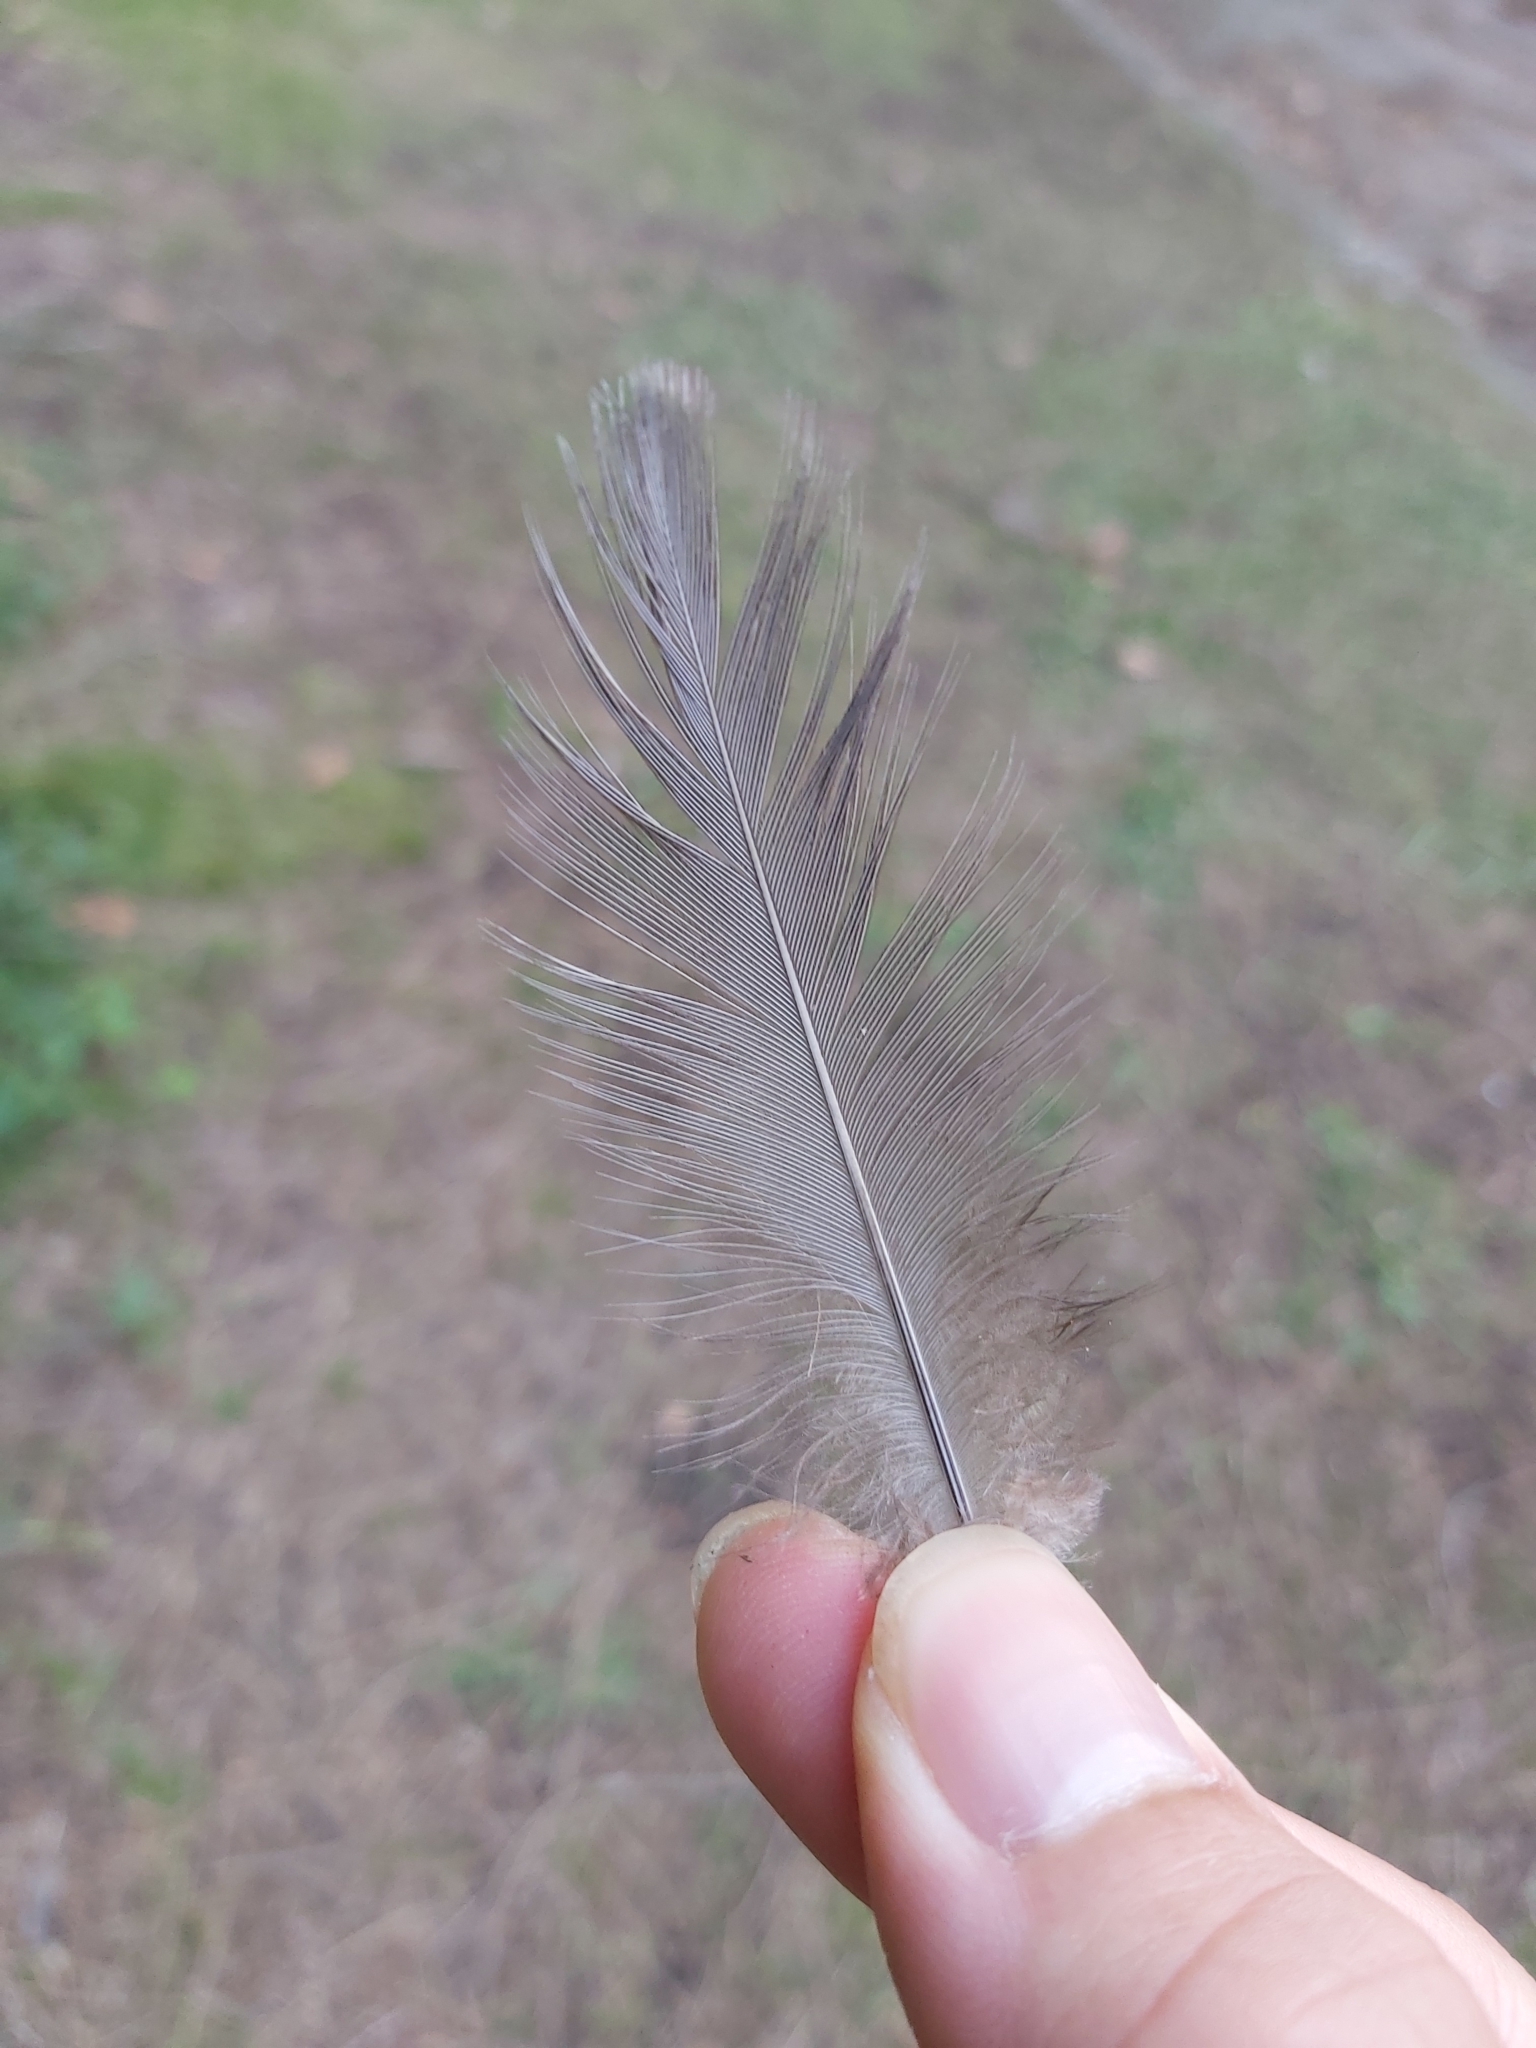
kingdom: Animalia
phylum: Chordata
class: Aves
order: Anseriformes
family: Anatidae
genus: Anas
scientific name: Anas superciliosa
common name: Pacific black duck
